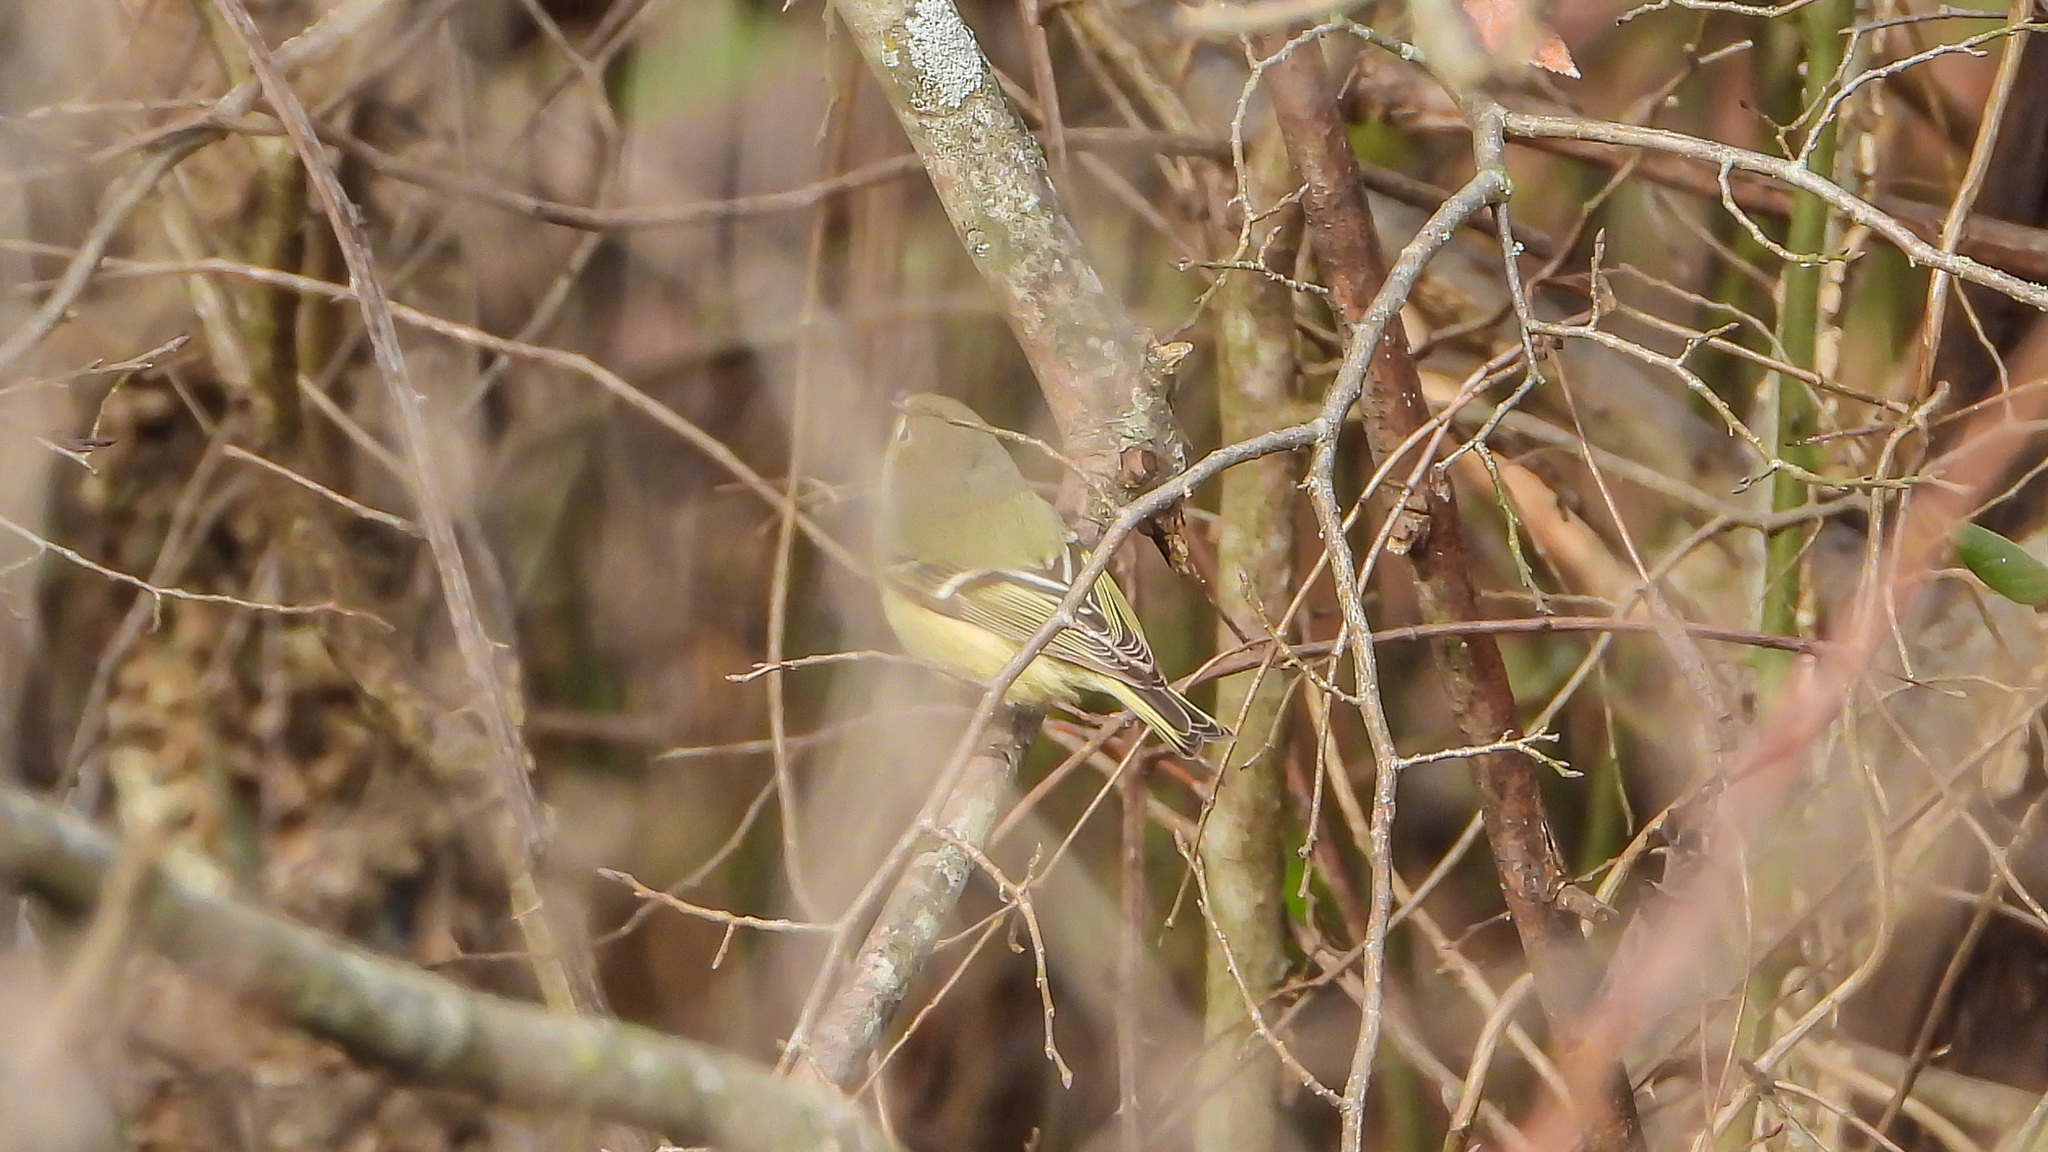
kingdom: Animalia
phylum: Chordata
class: Aves
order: Passeriformes
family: Regulidae
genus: Regulus
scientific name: Regulus calendula
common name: Ruby-crowned kinglet
